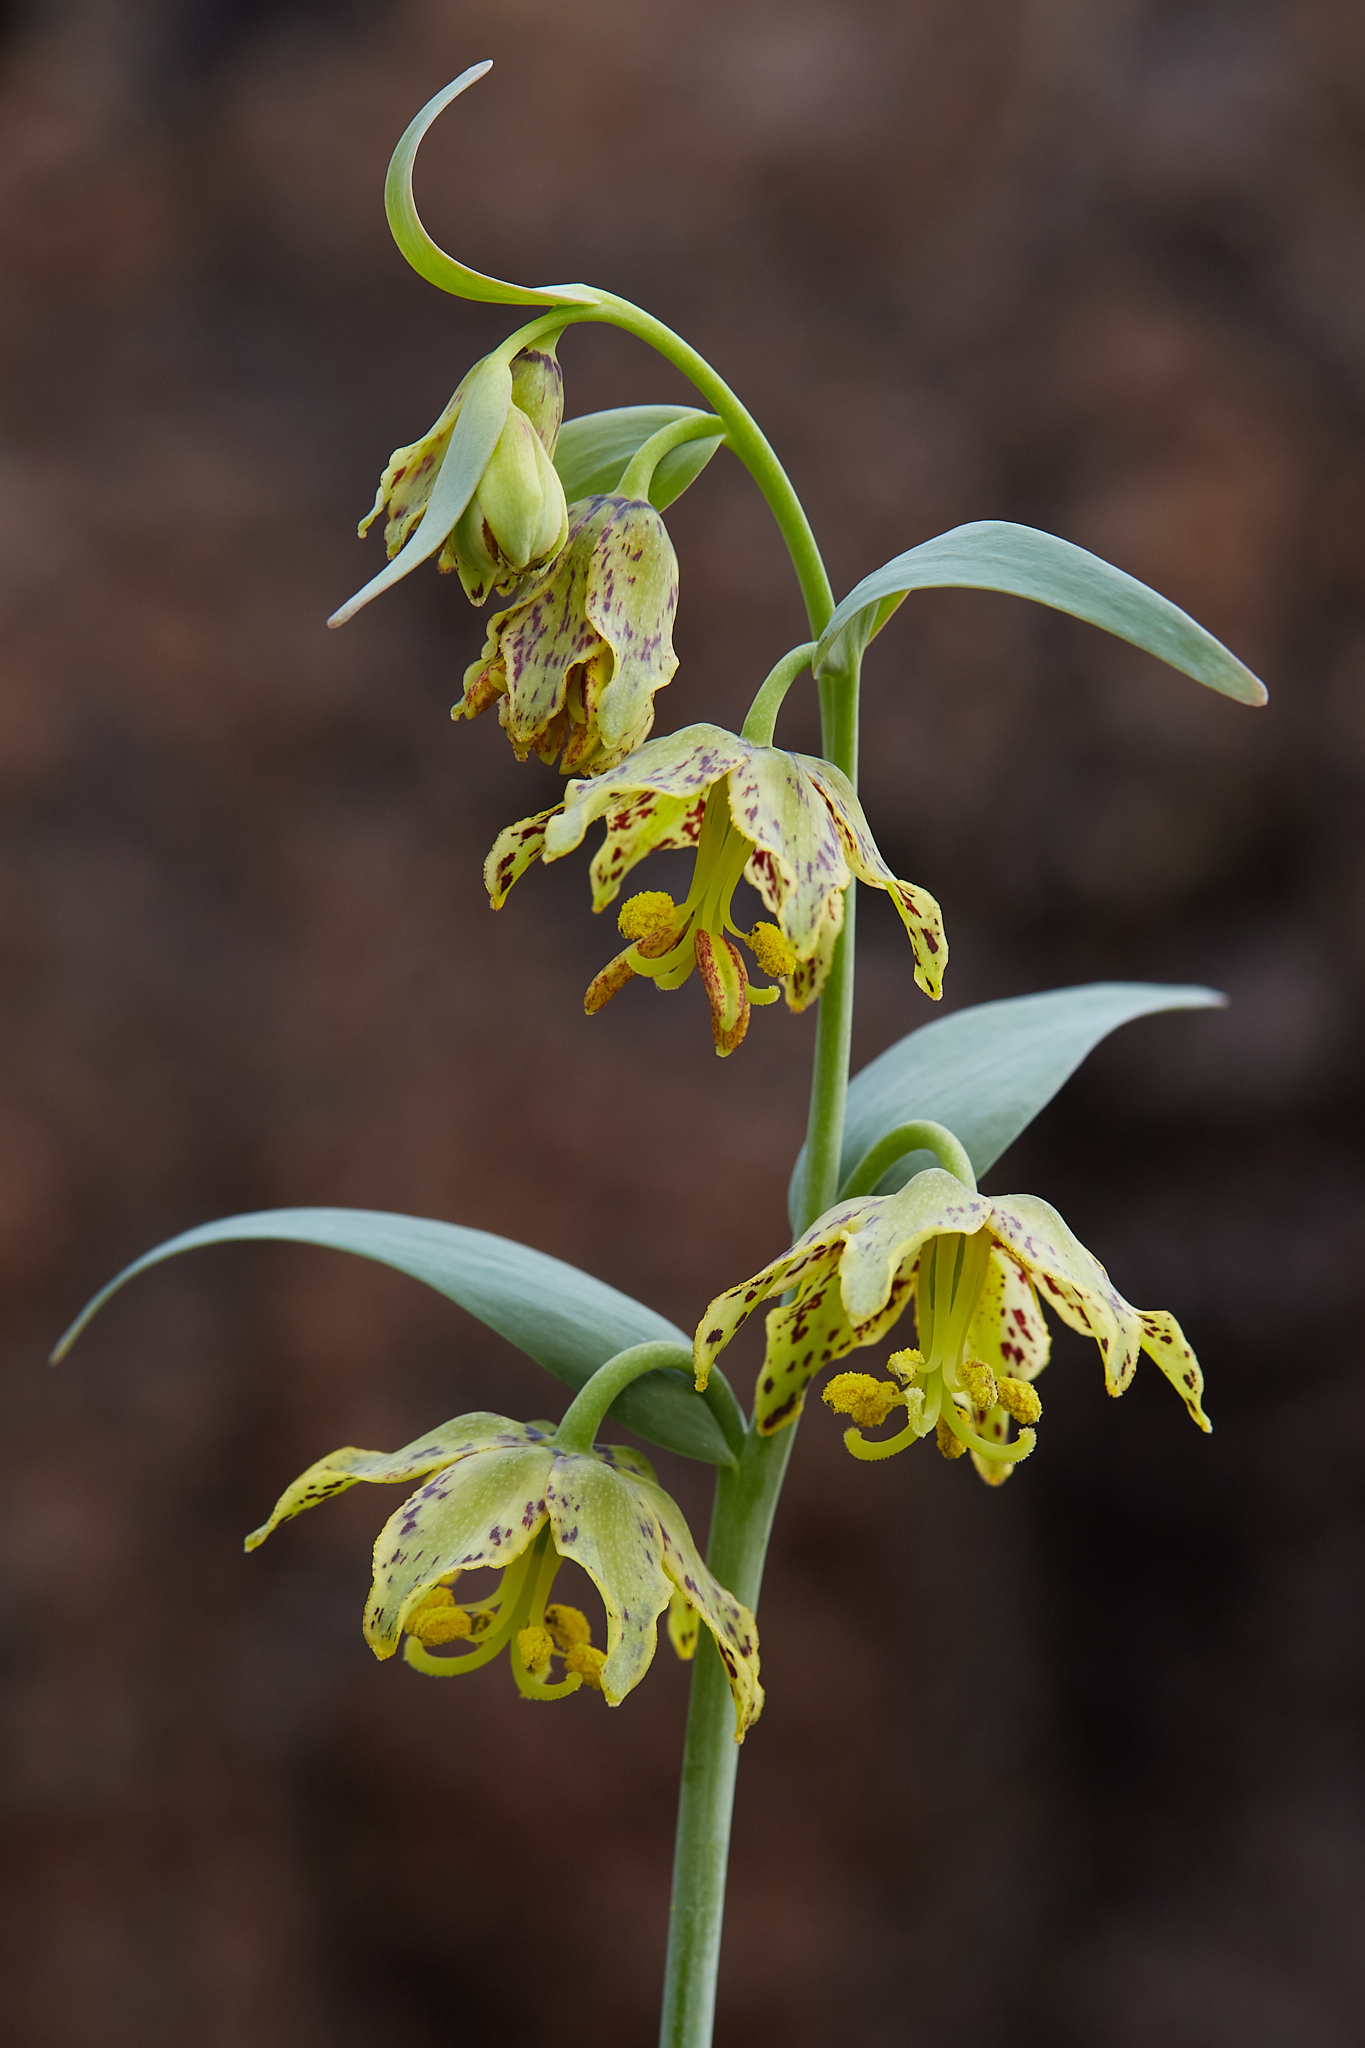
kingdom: Plantae
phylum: Tracheophyta
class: Liliopsida
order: Liliales
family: Liliaceae
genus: Fritillaria
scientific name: Fritillaria affinis
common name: Ojai fritillary
